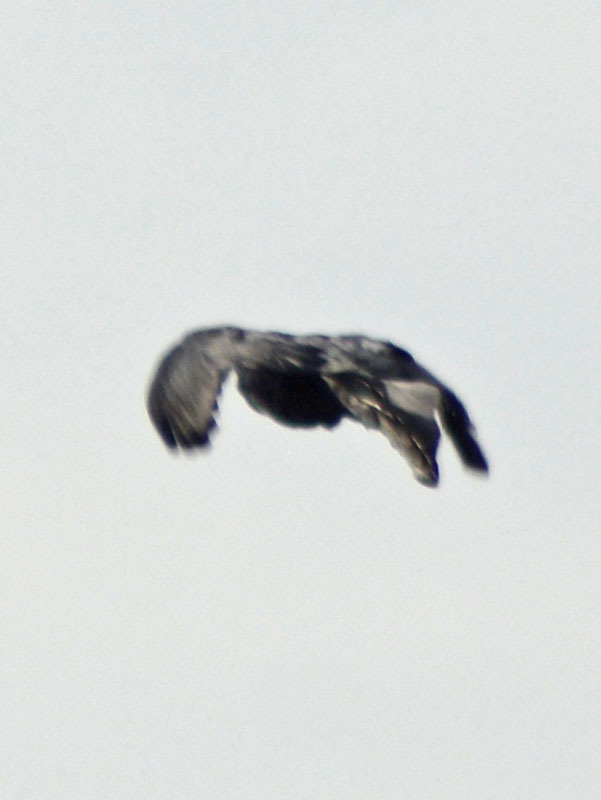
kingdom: Animalia
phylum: Chordata
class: Aves
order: Passeriformes
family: Icteridae
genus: Quiscalus
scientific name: Quiscalus mexicanus
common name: Great-tailed grackle
